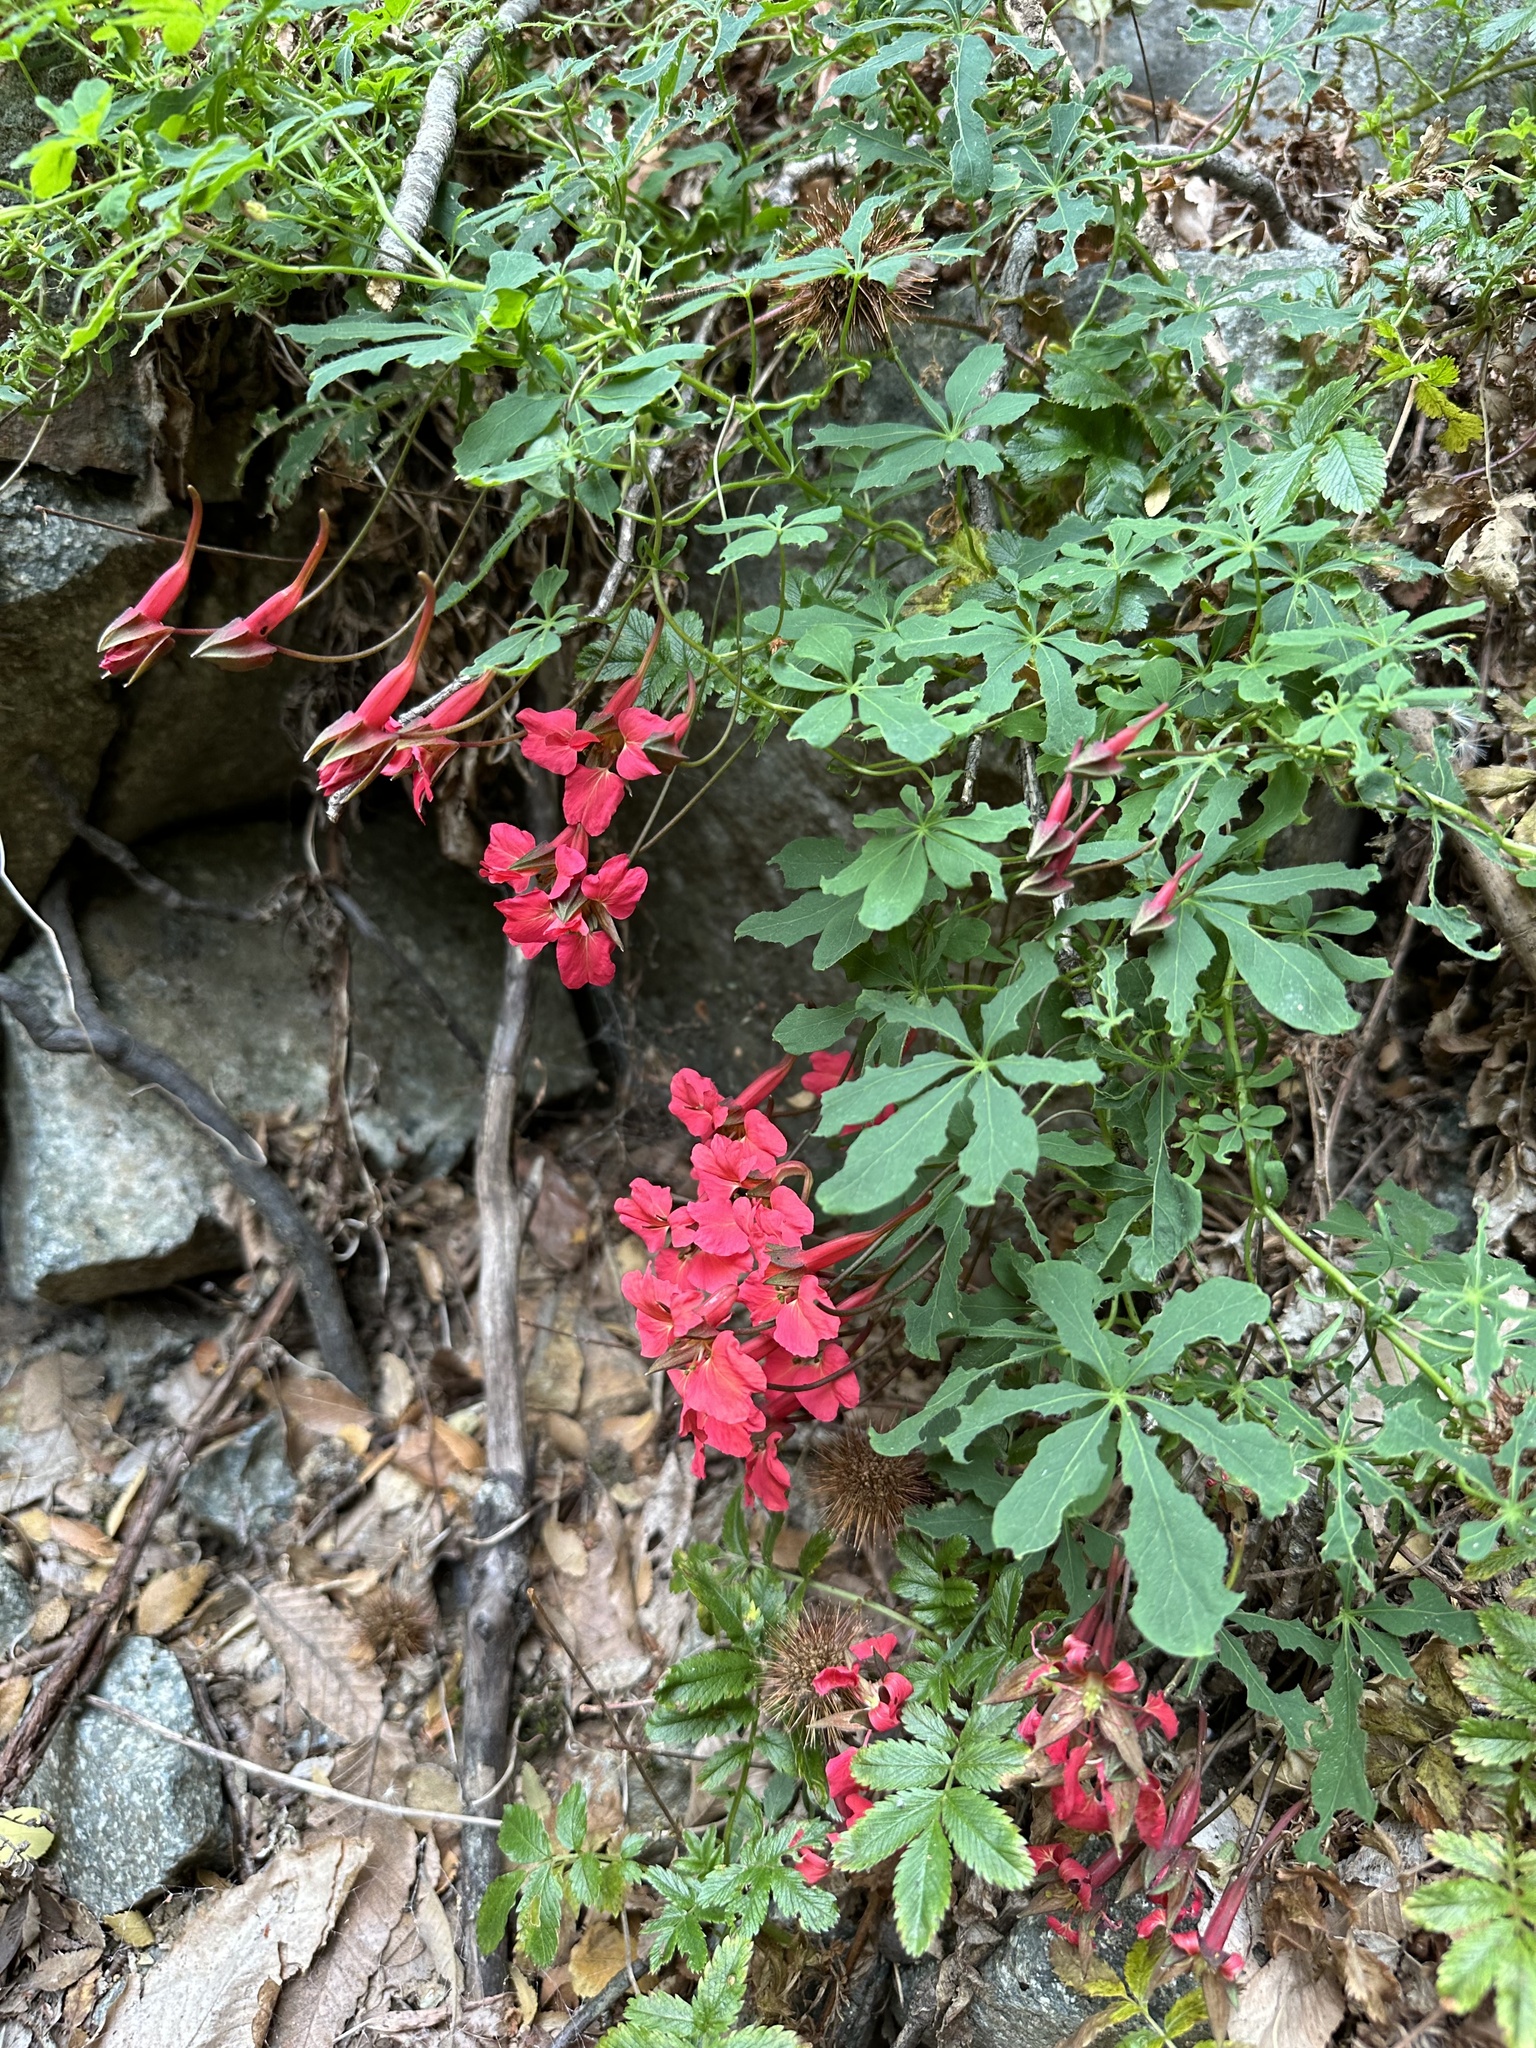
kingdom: Plantae
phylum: Tracheophyta
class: Magnoliopsida
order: Brassicales
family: Tropaeolaceae
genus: Tropaeolum
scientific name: Tropaeolum speciosum
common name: Flame nasturtium
